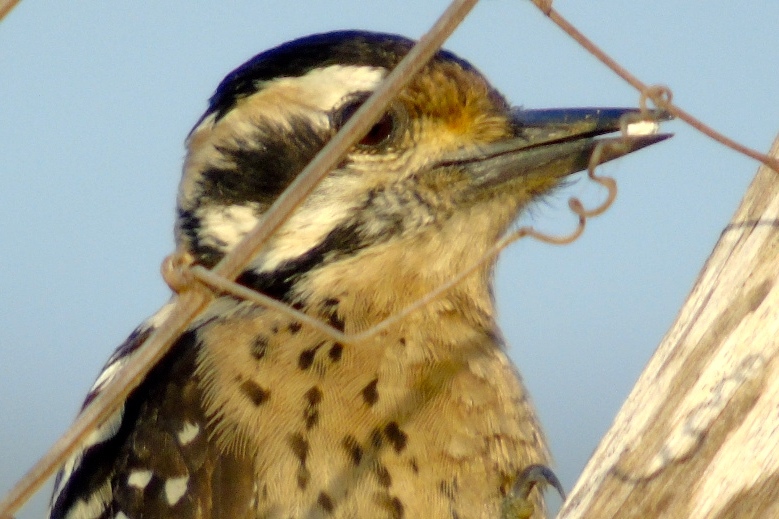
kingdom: Animalia
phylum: Chordata
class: Aves
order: Piciformes
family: Picidae
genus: Dryobates
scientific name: Dryobates scalaris
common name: Ladder-backed woodpecker
